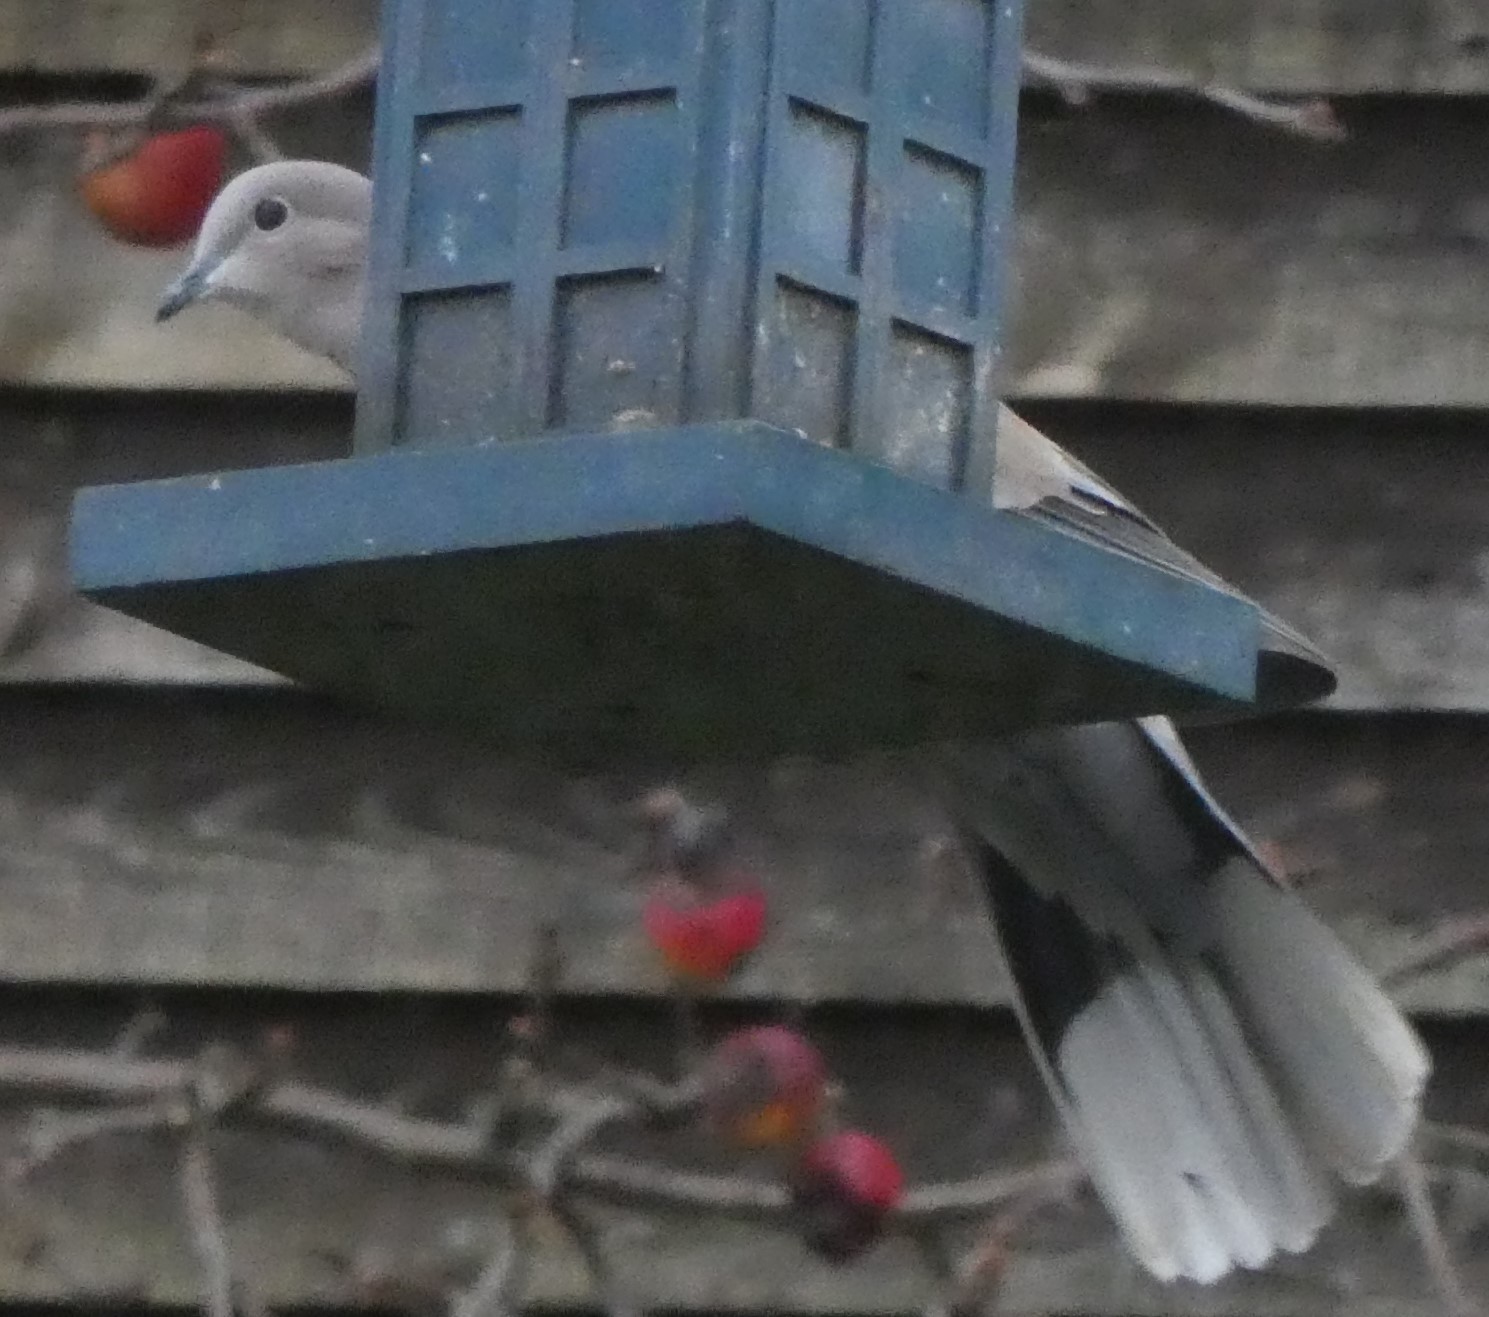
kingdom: Animalia
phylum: Chordata
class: Aves
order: Columbiformes
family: Columbidae
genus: Streptopelia
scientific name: Streptopelia decaocto
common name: Eurasian collared dove
